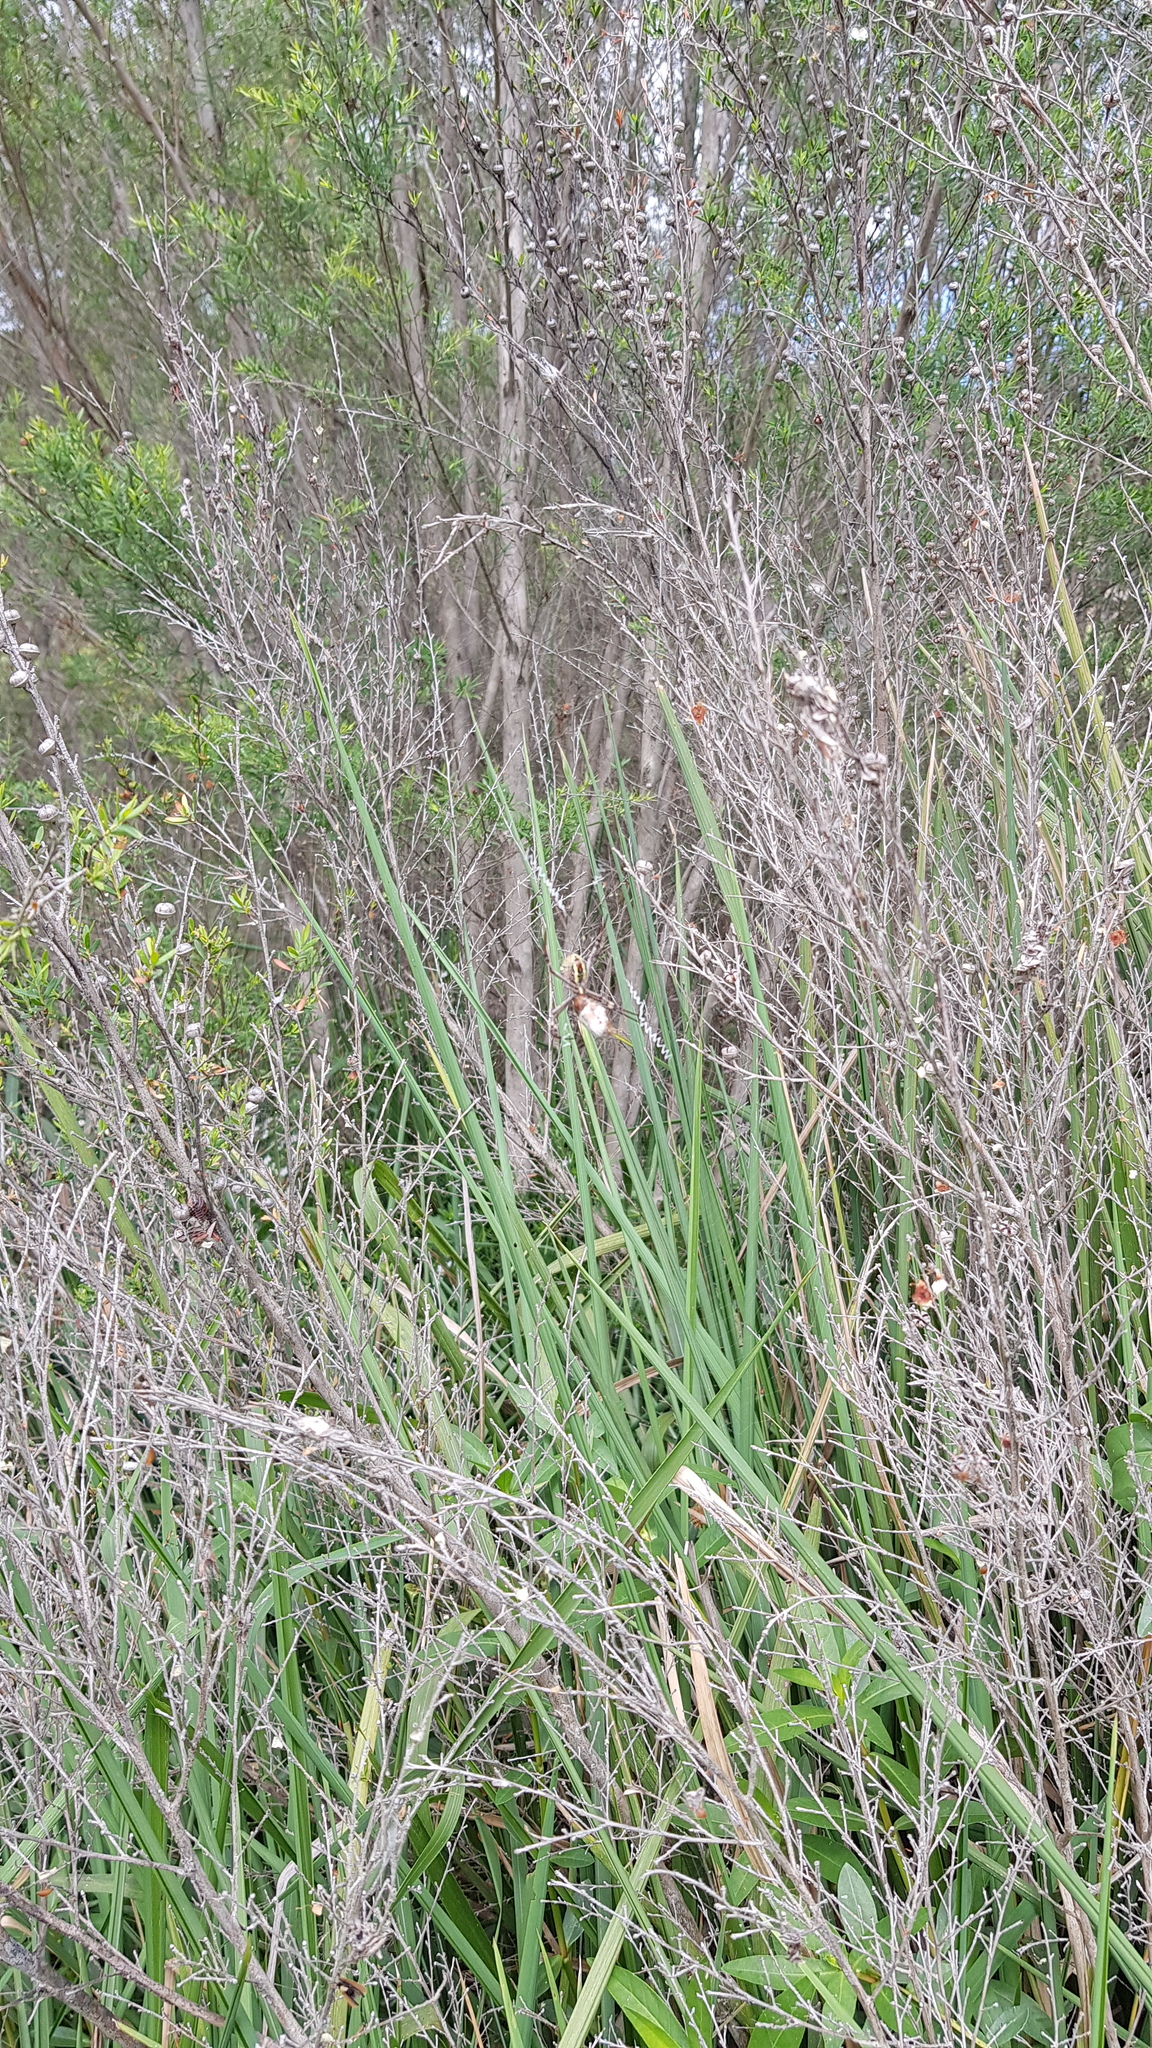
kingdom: Animalia
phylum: Arthropoda
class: Arachnida
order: Araneae
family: Araneidae
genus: Argiope
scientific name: Argiope keyserlingi
